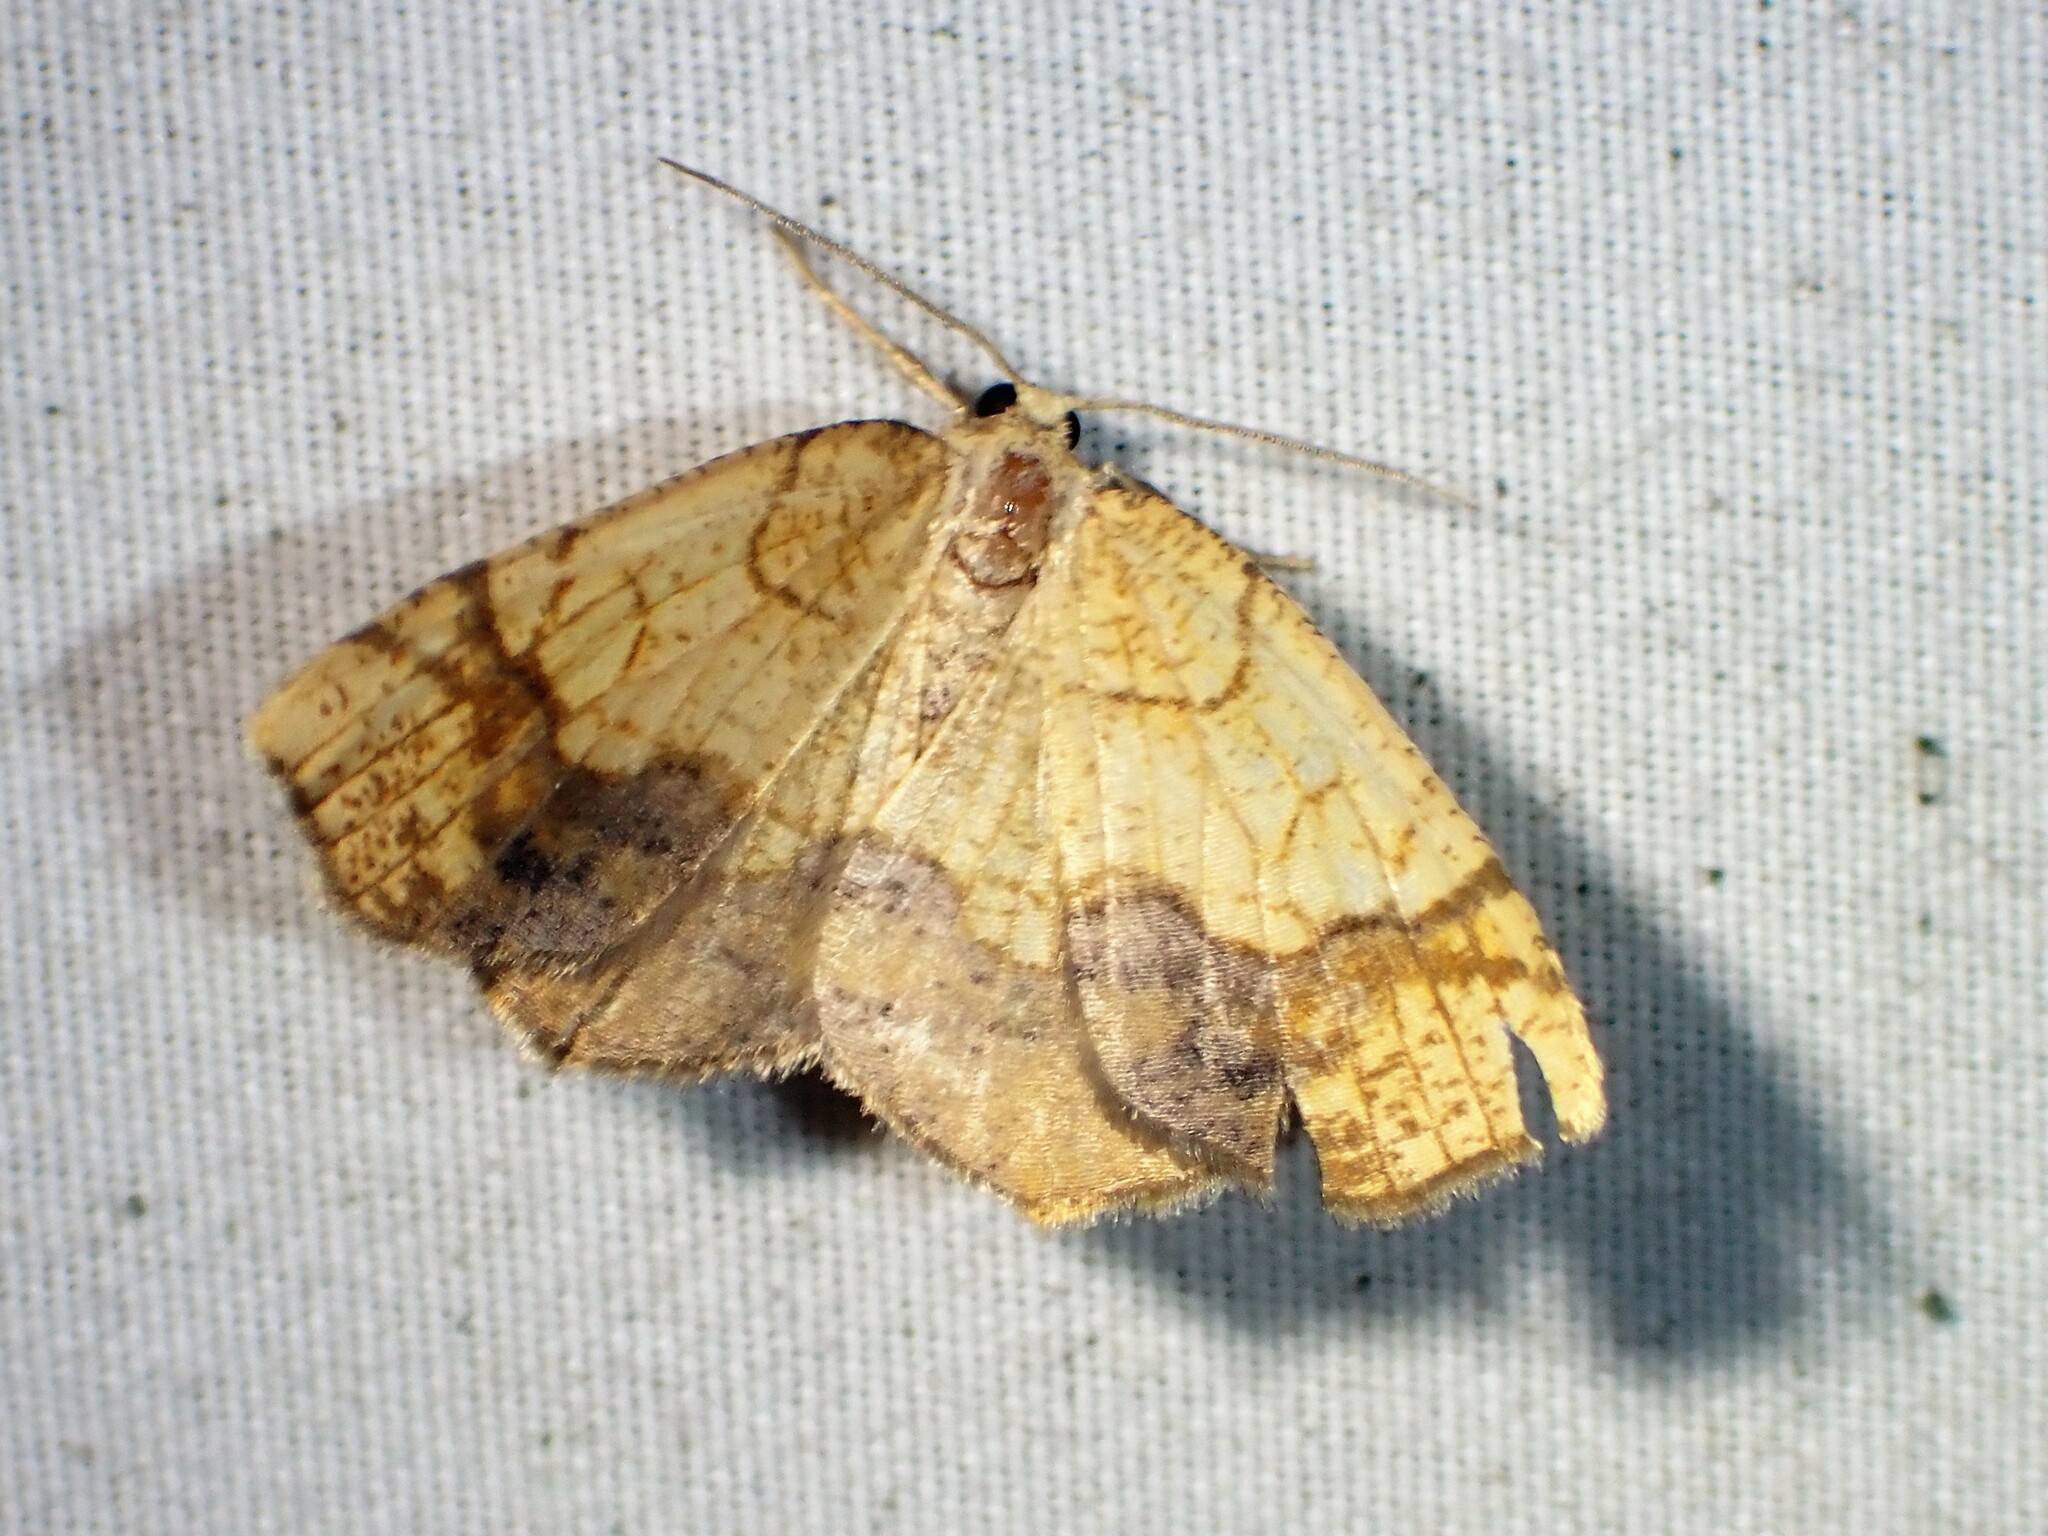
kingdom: Animalia
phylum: Arthropoda
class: Insecta
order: Lepidoptera
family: Geometridae
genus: Nematocampa
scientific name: Nematocampa resistaria
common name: Horned spanworm moth
